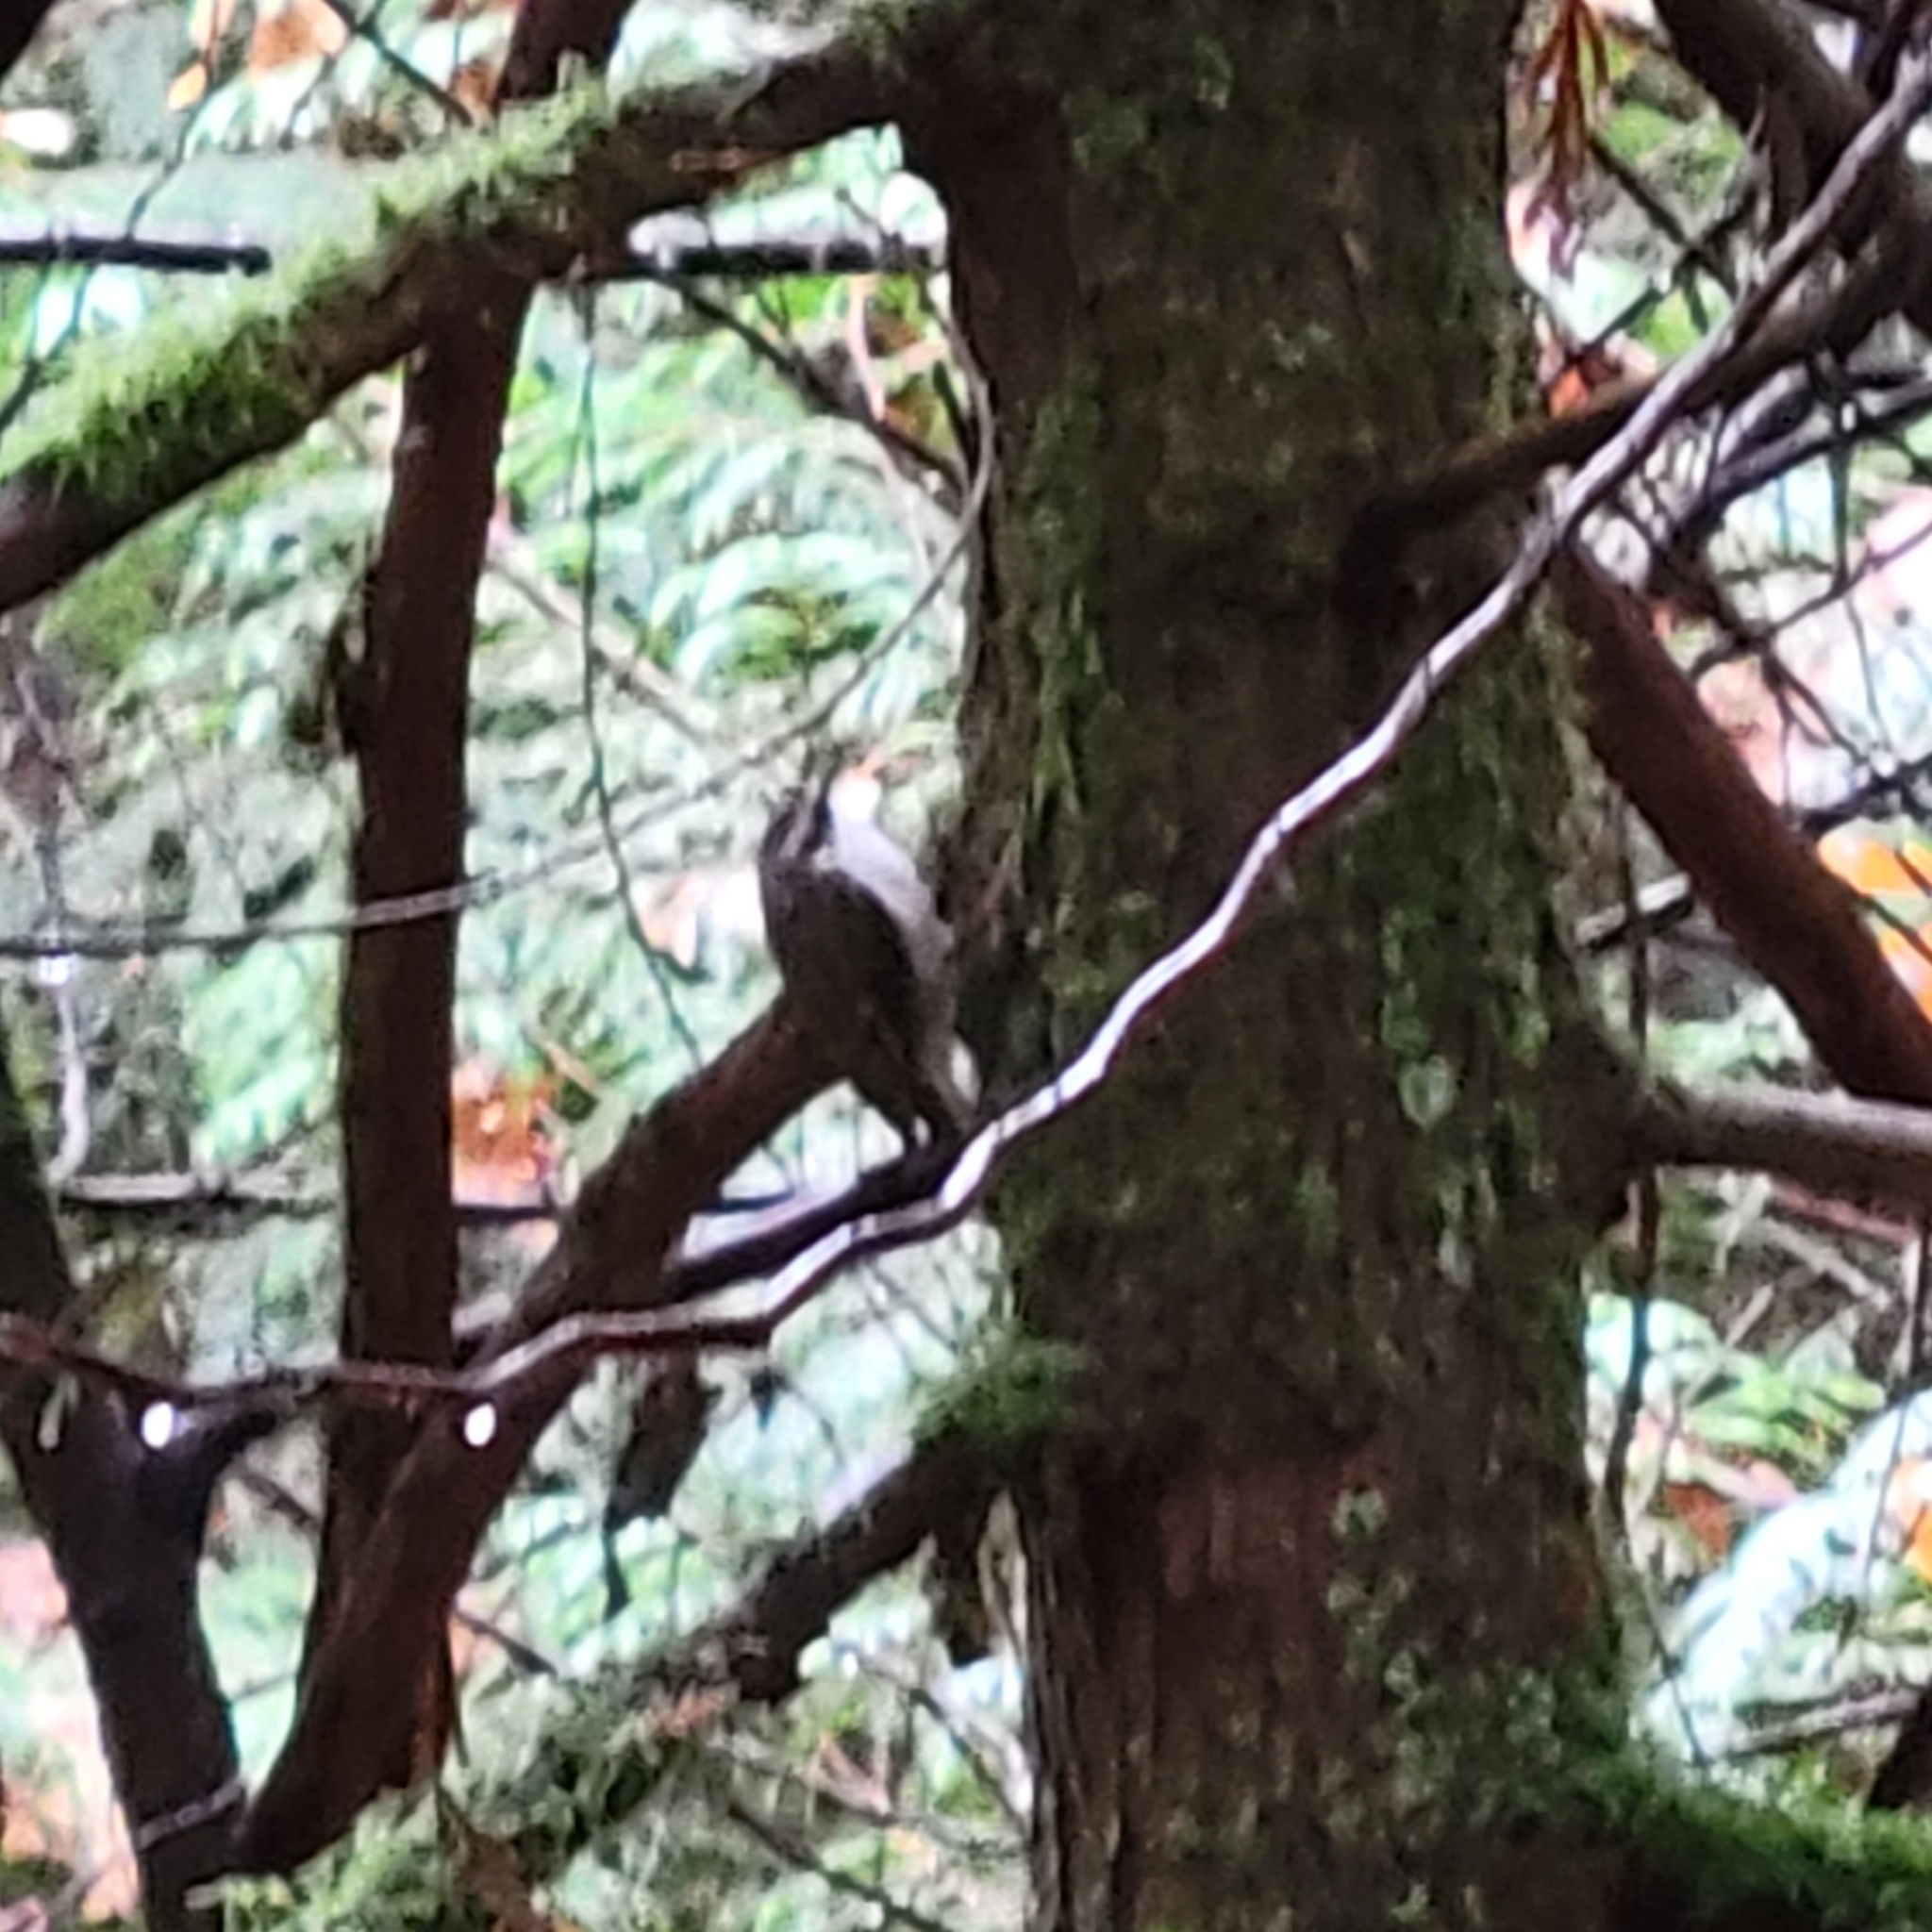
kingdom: Animalia
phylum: Chordata
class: Aves
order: Passeriformes
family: Certhiidae
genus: Certhia
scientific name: Certhia americana
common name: Brown creeper
